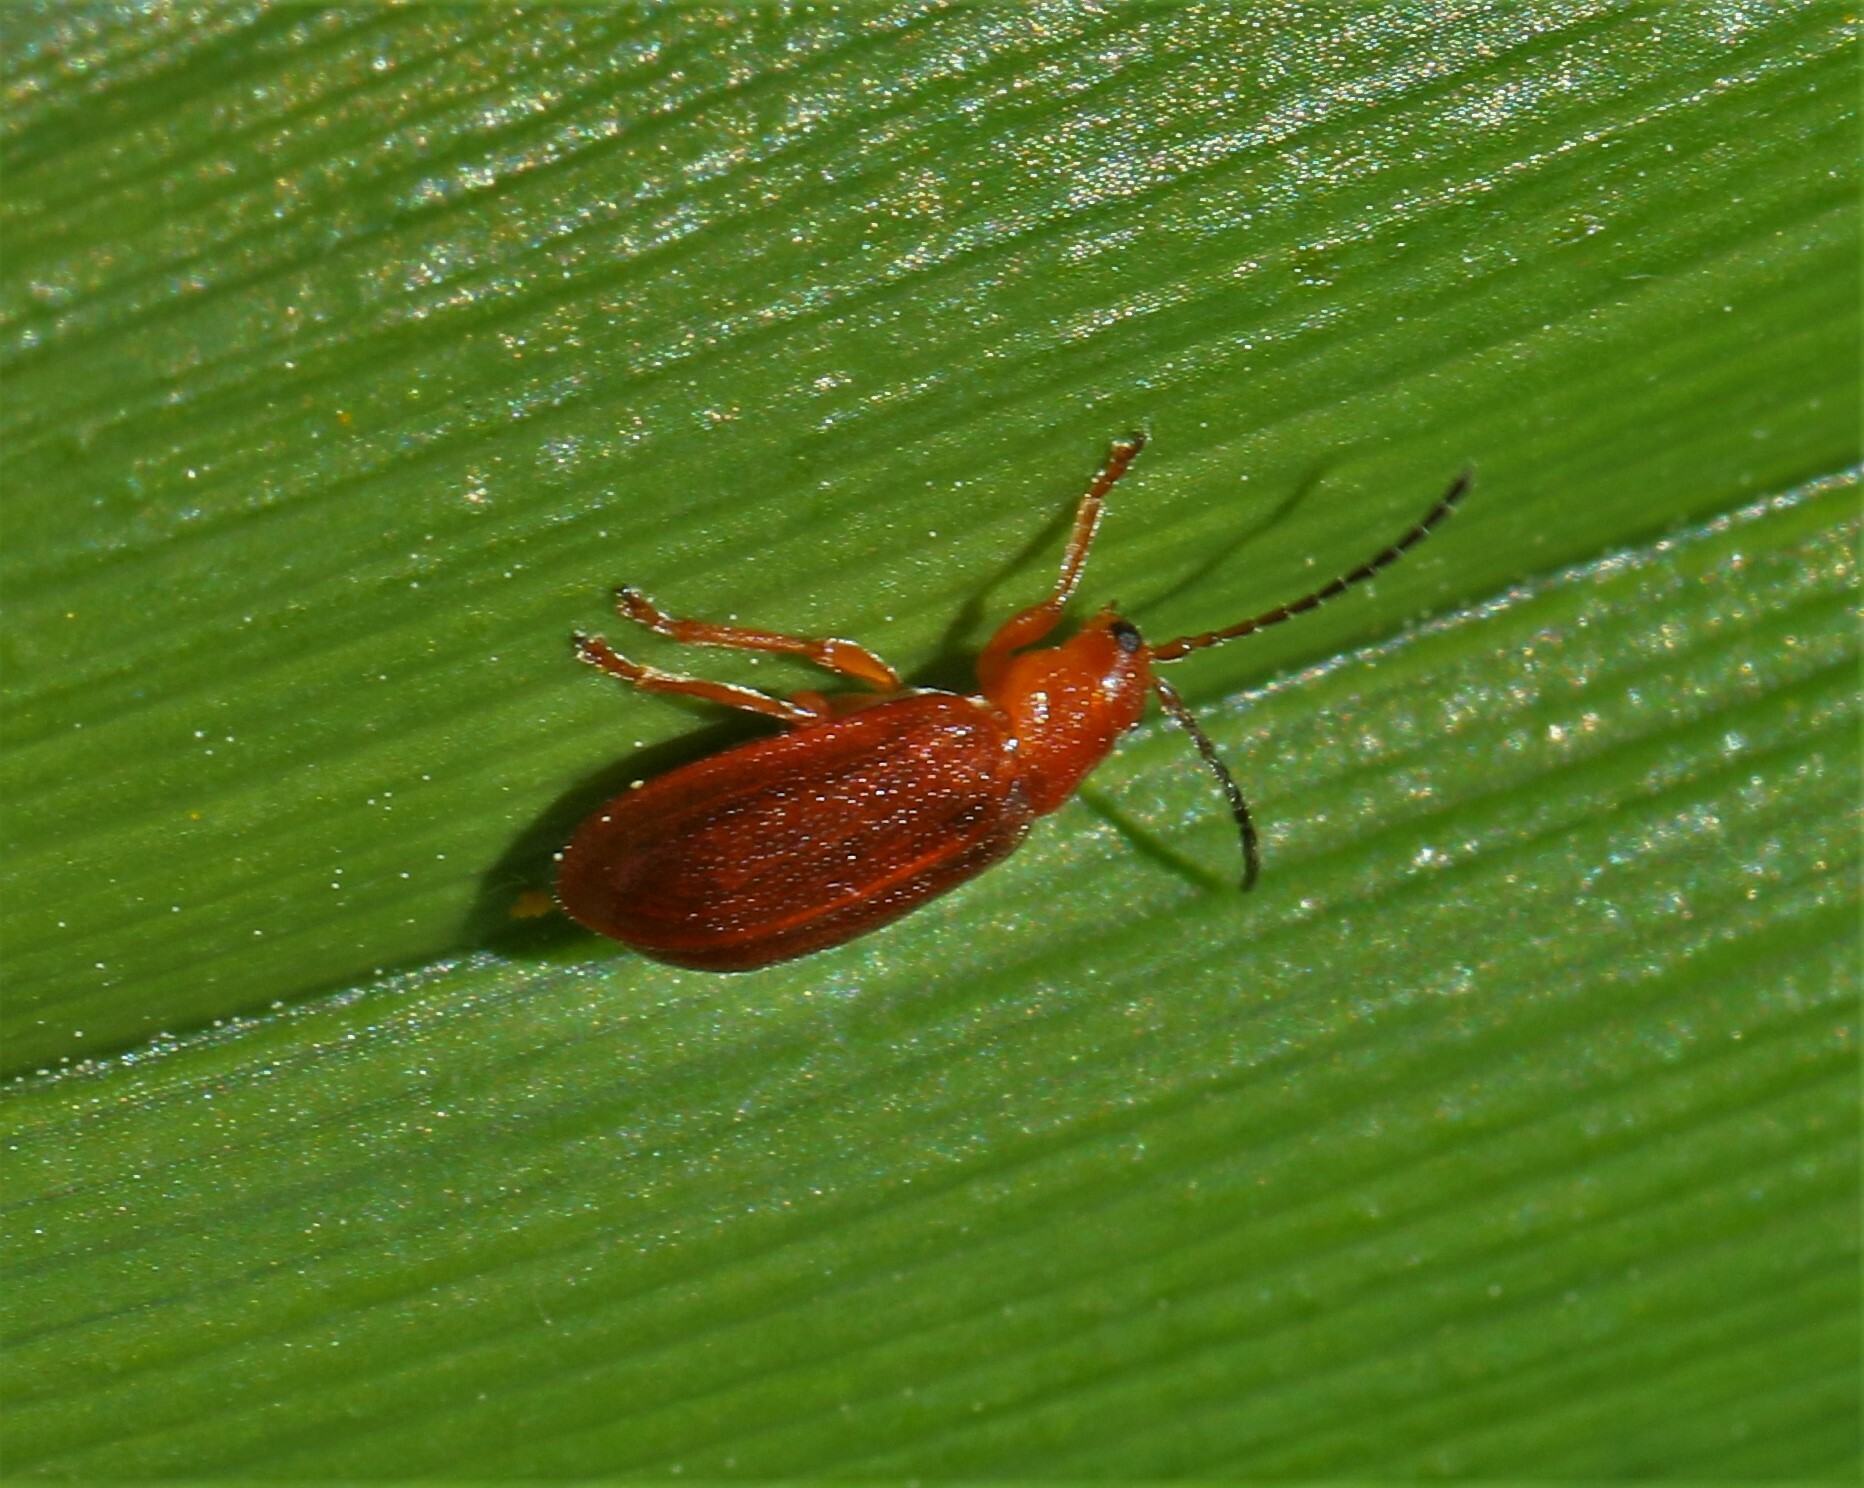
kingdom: Animalia
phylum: Arthropoda
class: Insecta
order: Coleoptera
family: Chrysomelidae
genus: Tricholochmaea
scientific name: Tricholochmaea kalmiae
